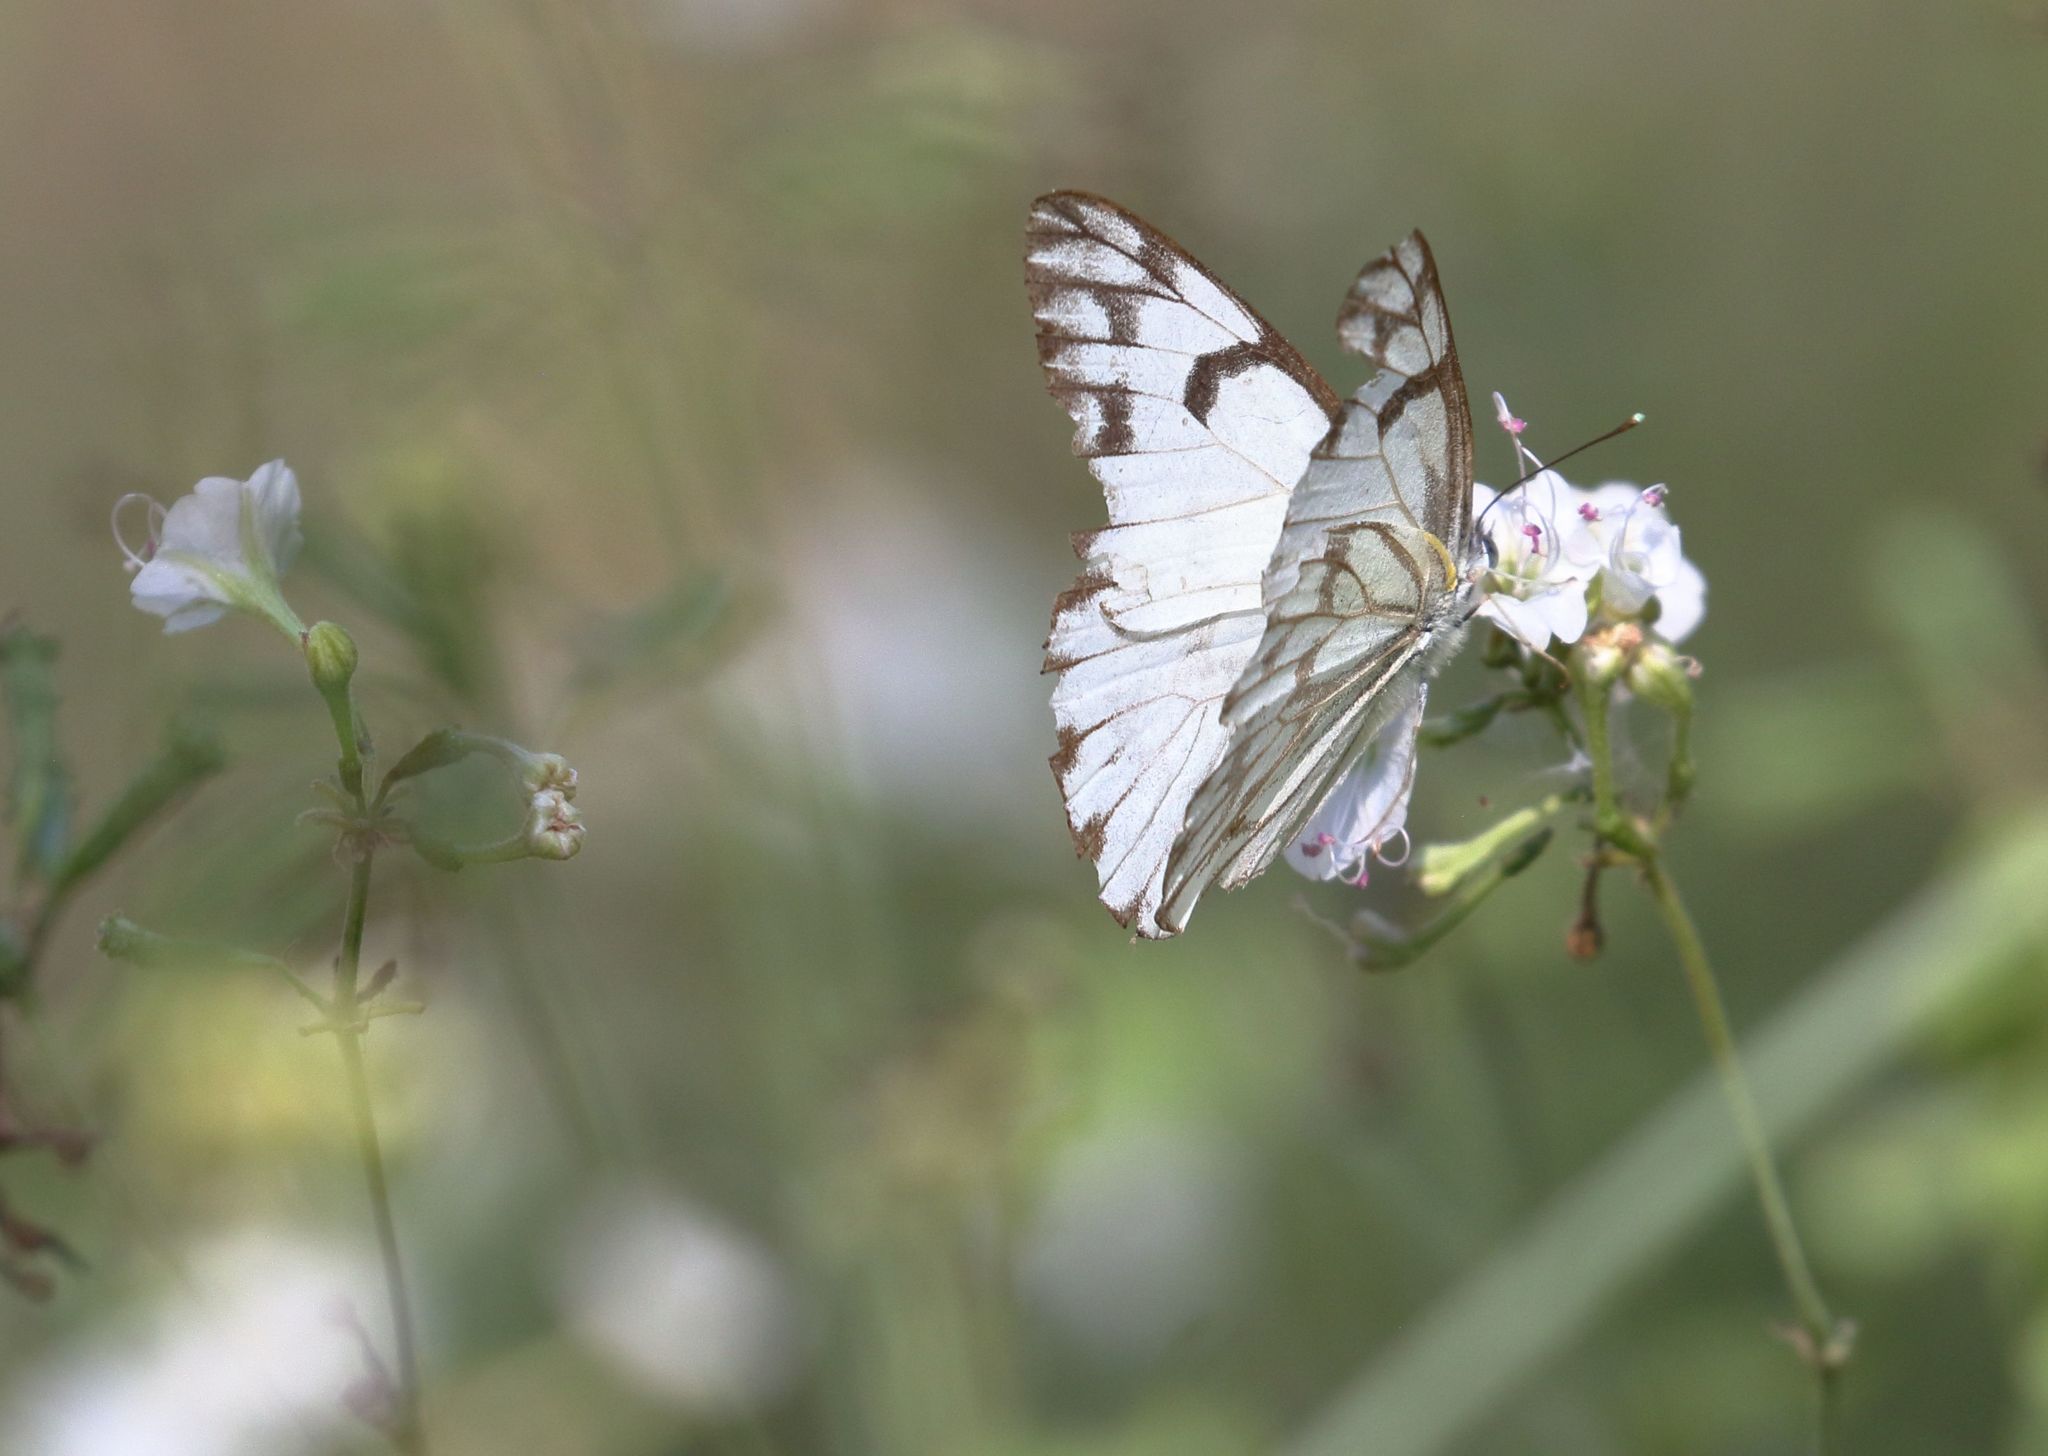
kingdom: Animalia
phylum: Arthropoda
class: Insecta
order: Lepidoptera
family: Pieridae
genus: Belenois
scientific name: Belenois gidica
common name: Pointed caper white
